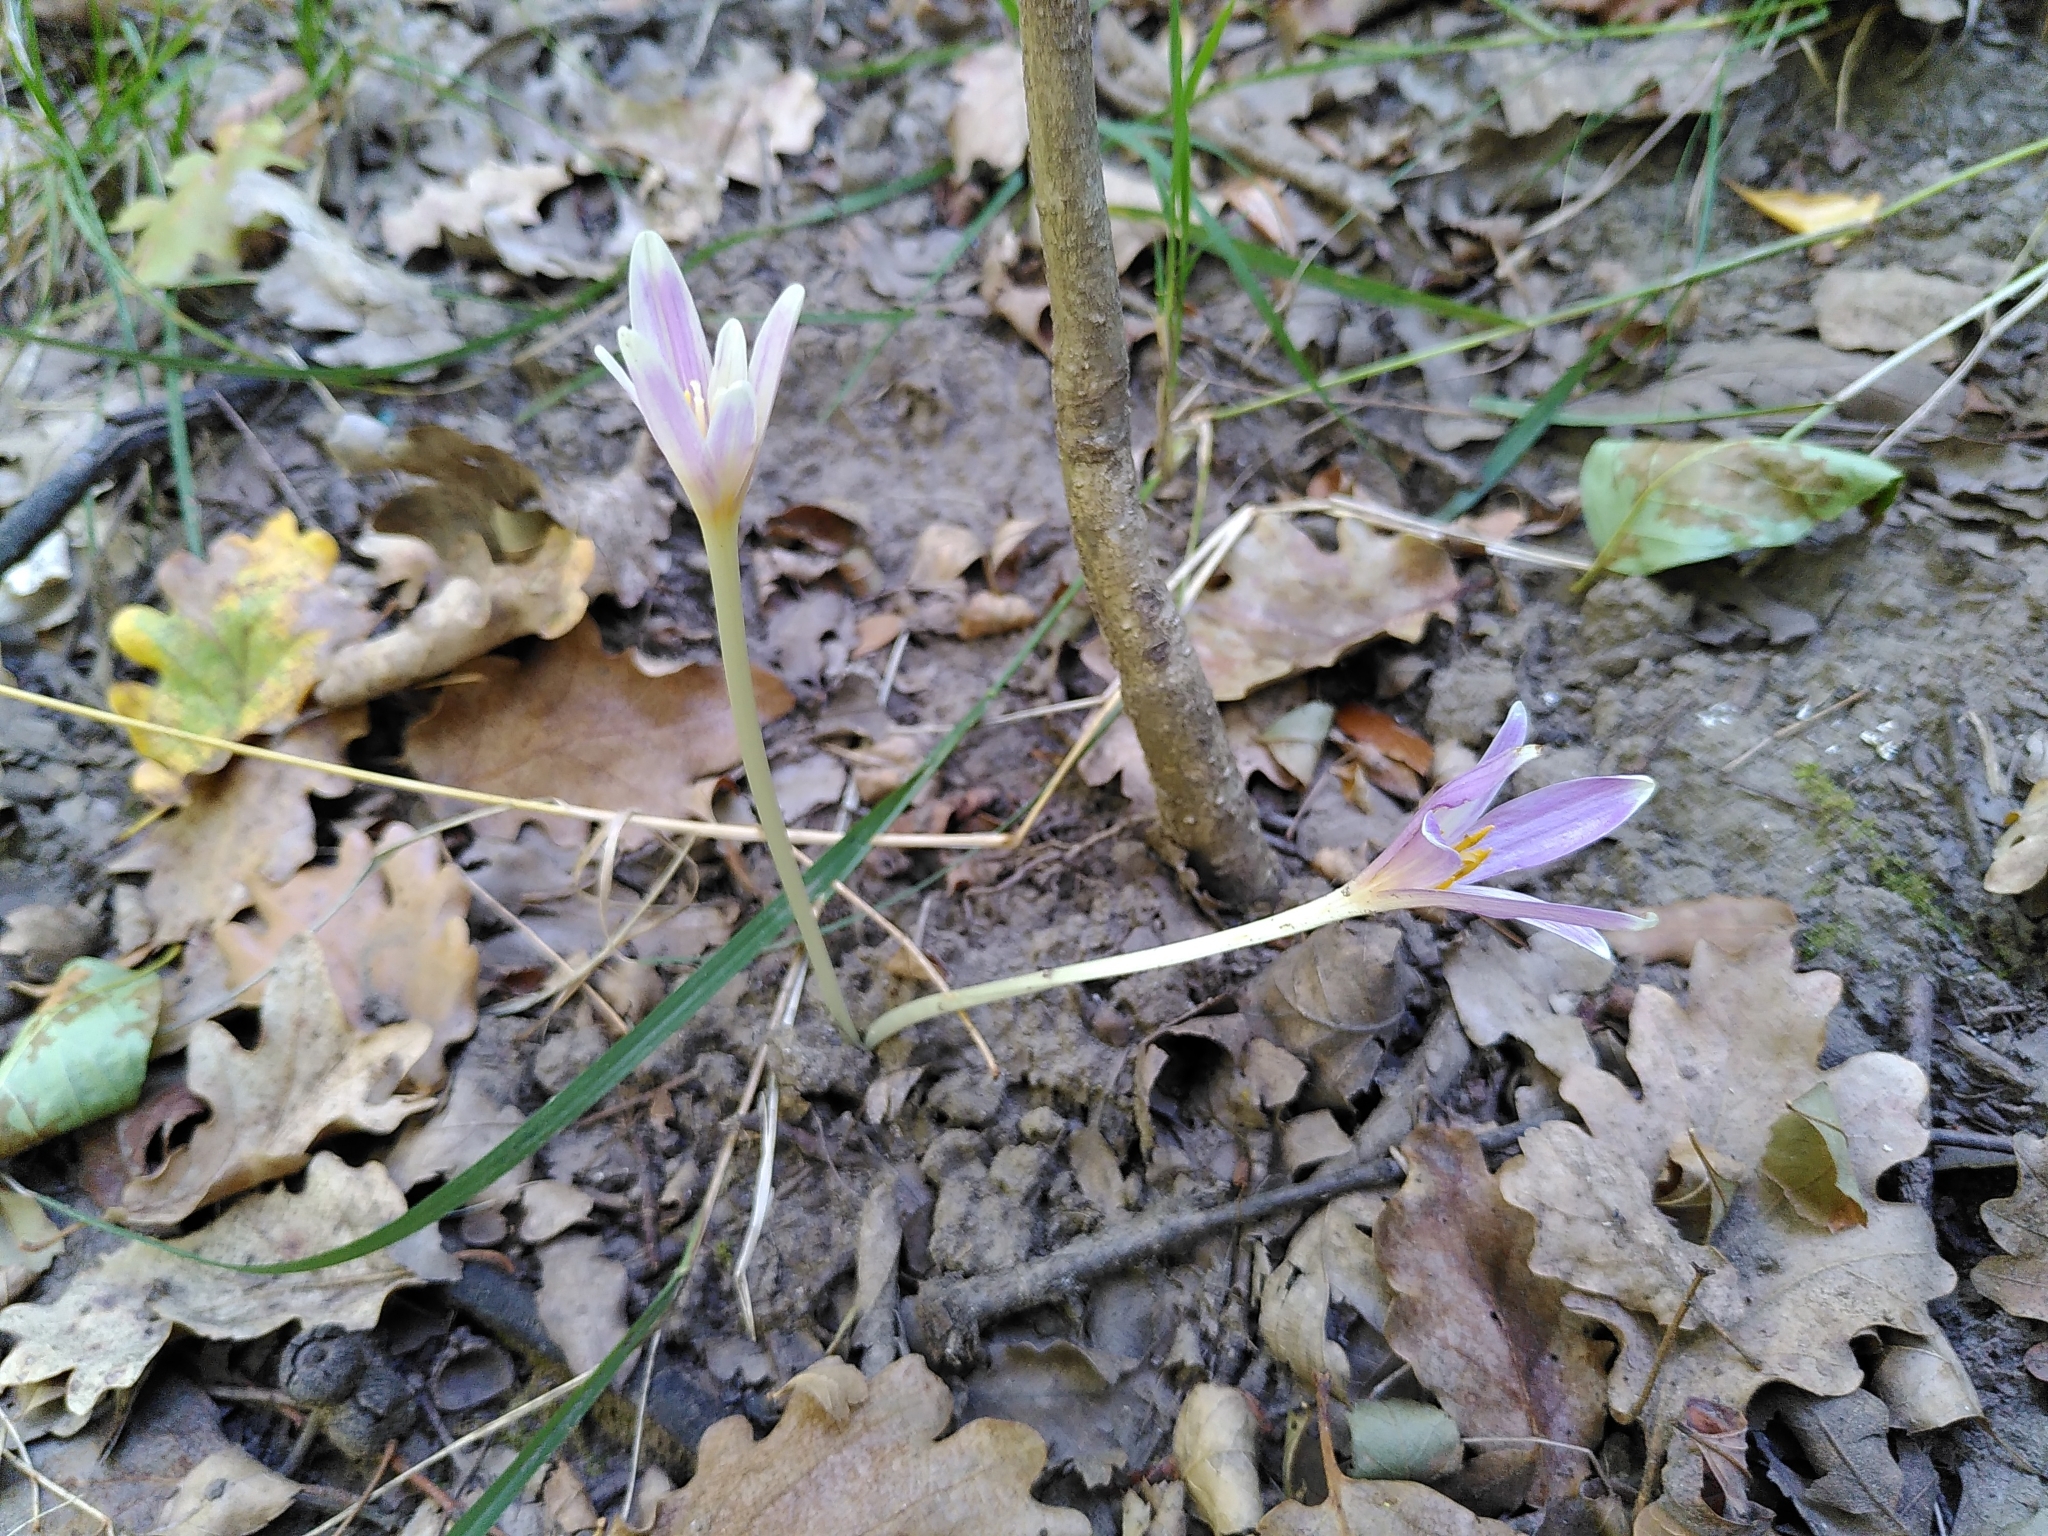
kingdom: Plantae
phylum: Tracheophyta
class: Liliopsida
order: Liliales
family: Colchicaceae
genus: Colchicum
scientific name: Colchicum autumnale
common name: Autumn crocus
